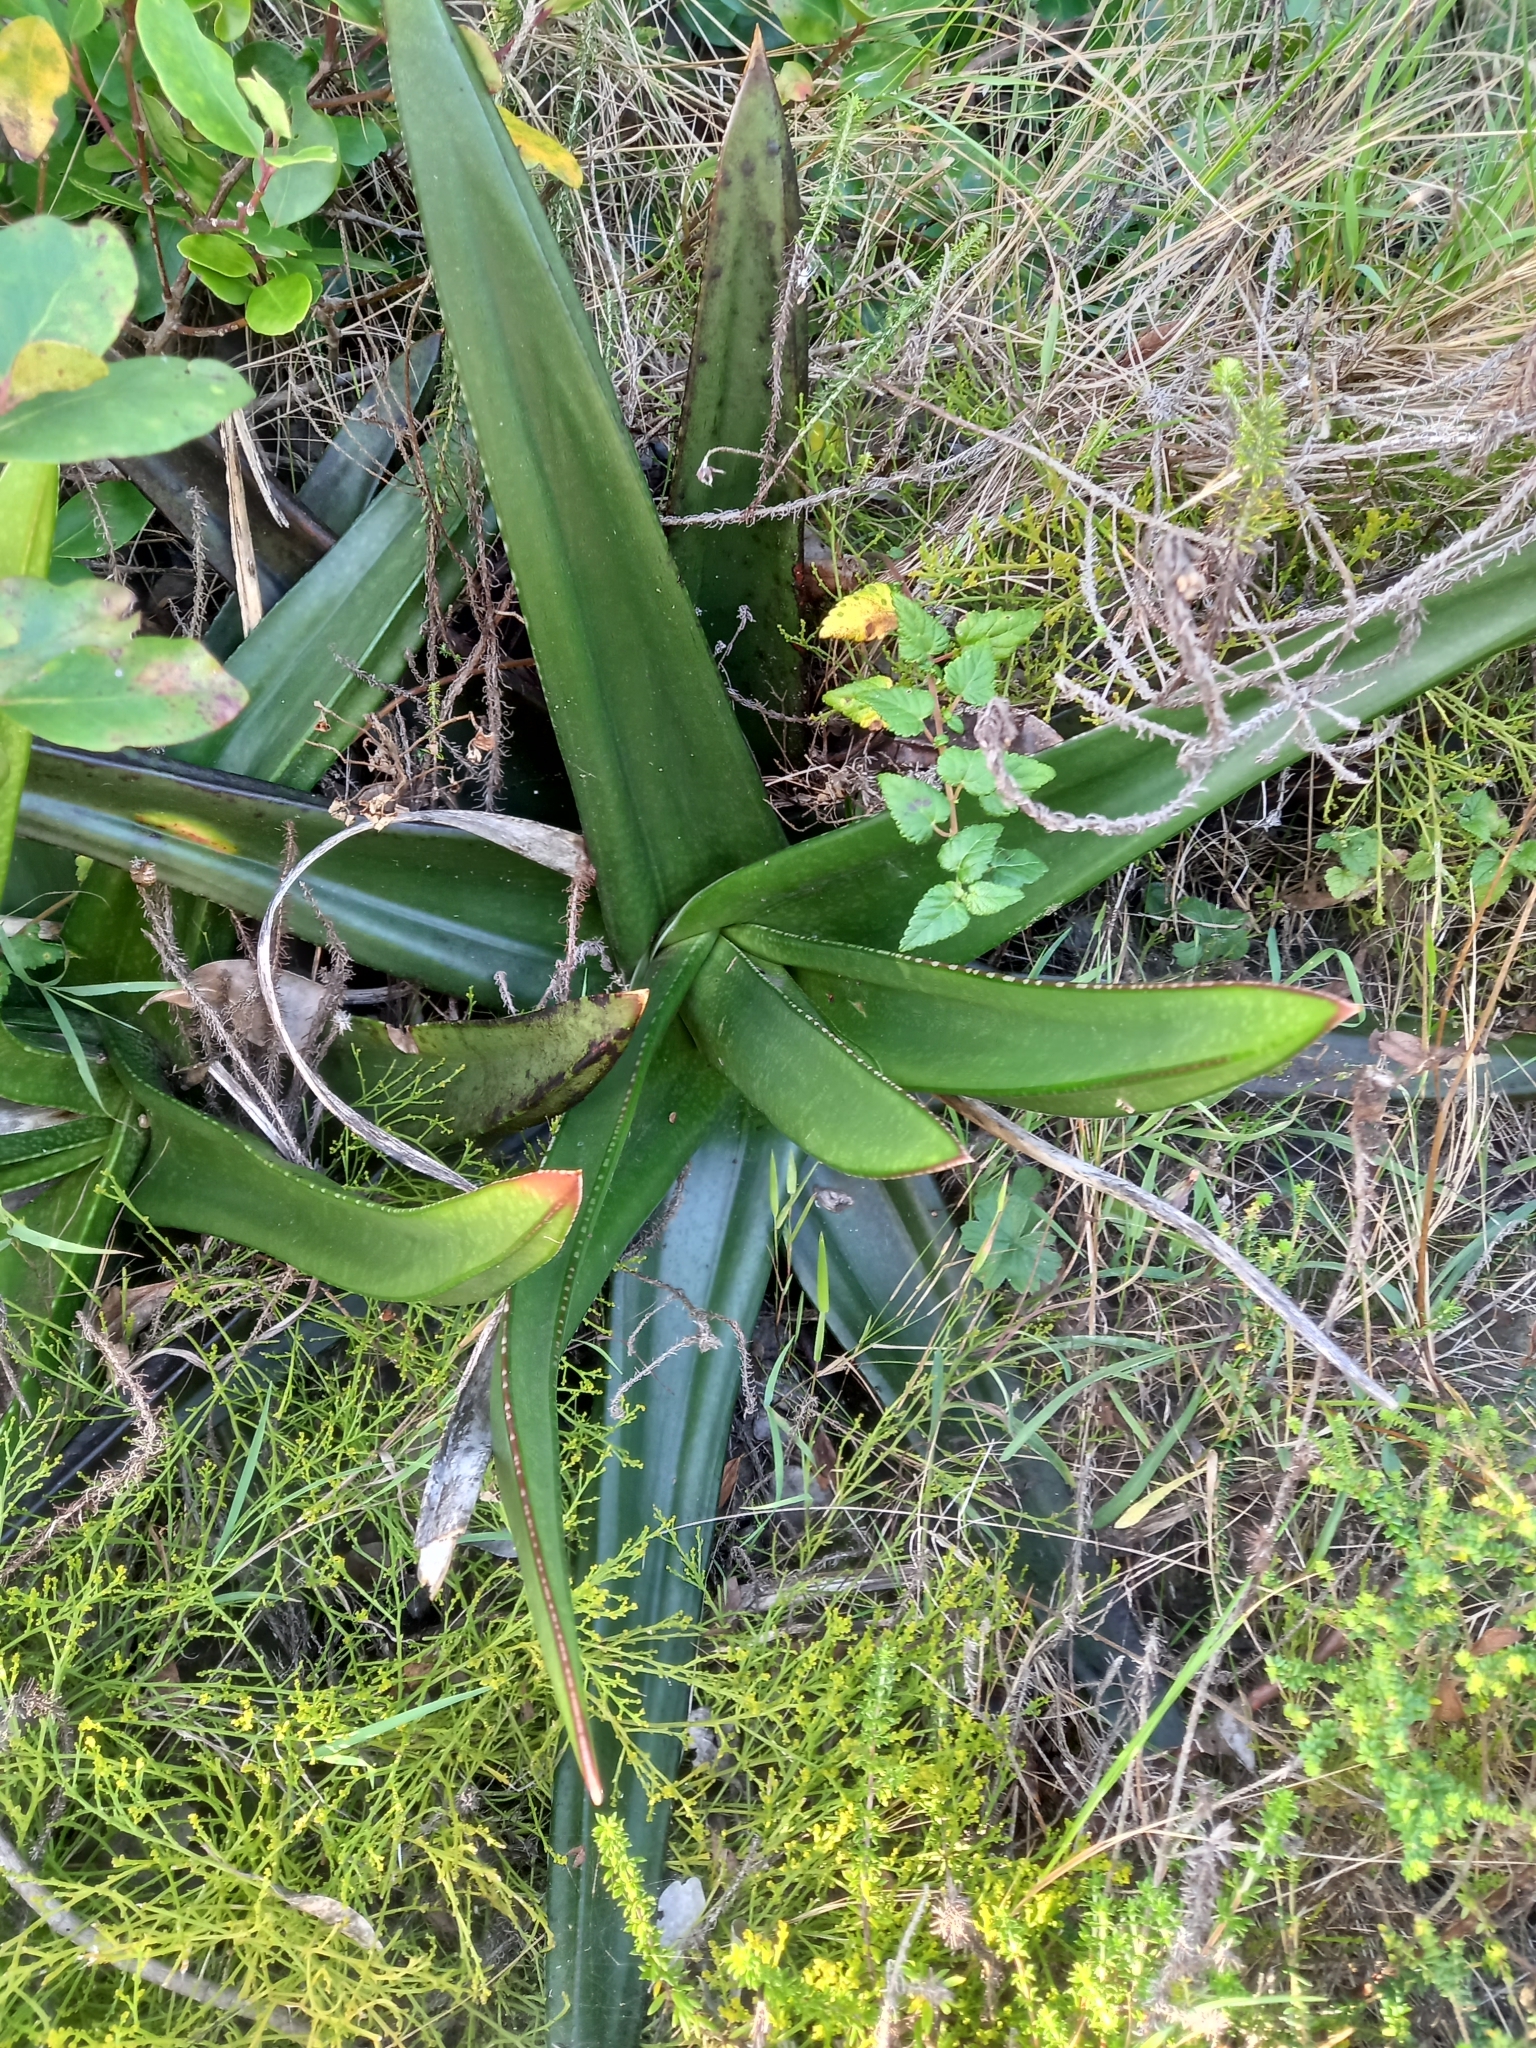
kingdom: Plantae
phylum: Tracheophyta
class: Liliopsida
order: Asparagales
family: Asphodelaceae
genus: Gasteria
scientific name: Gasteria acinacifolia
